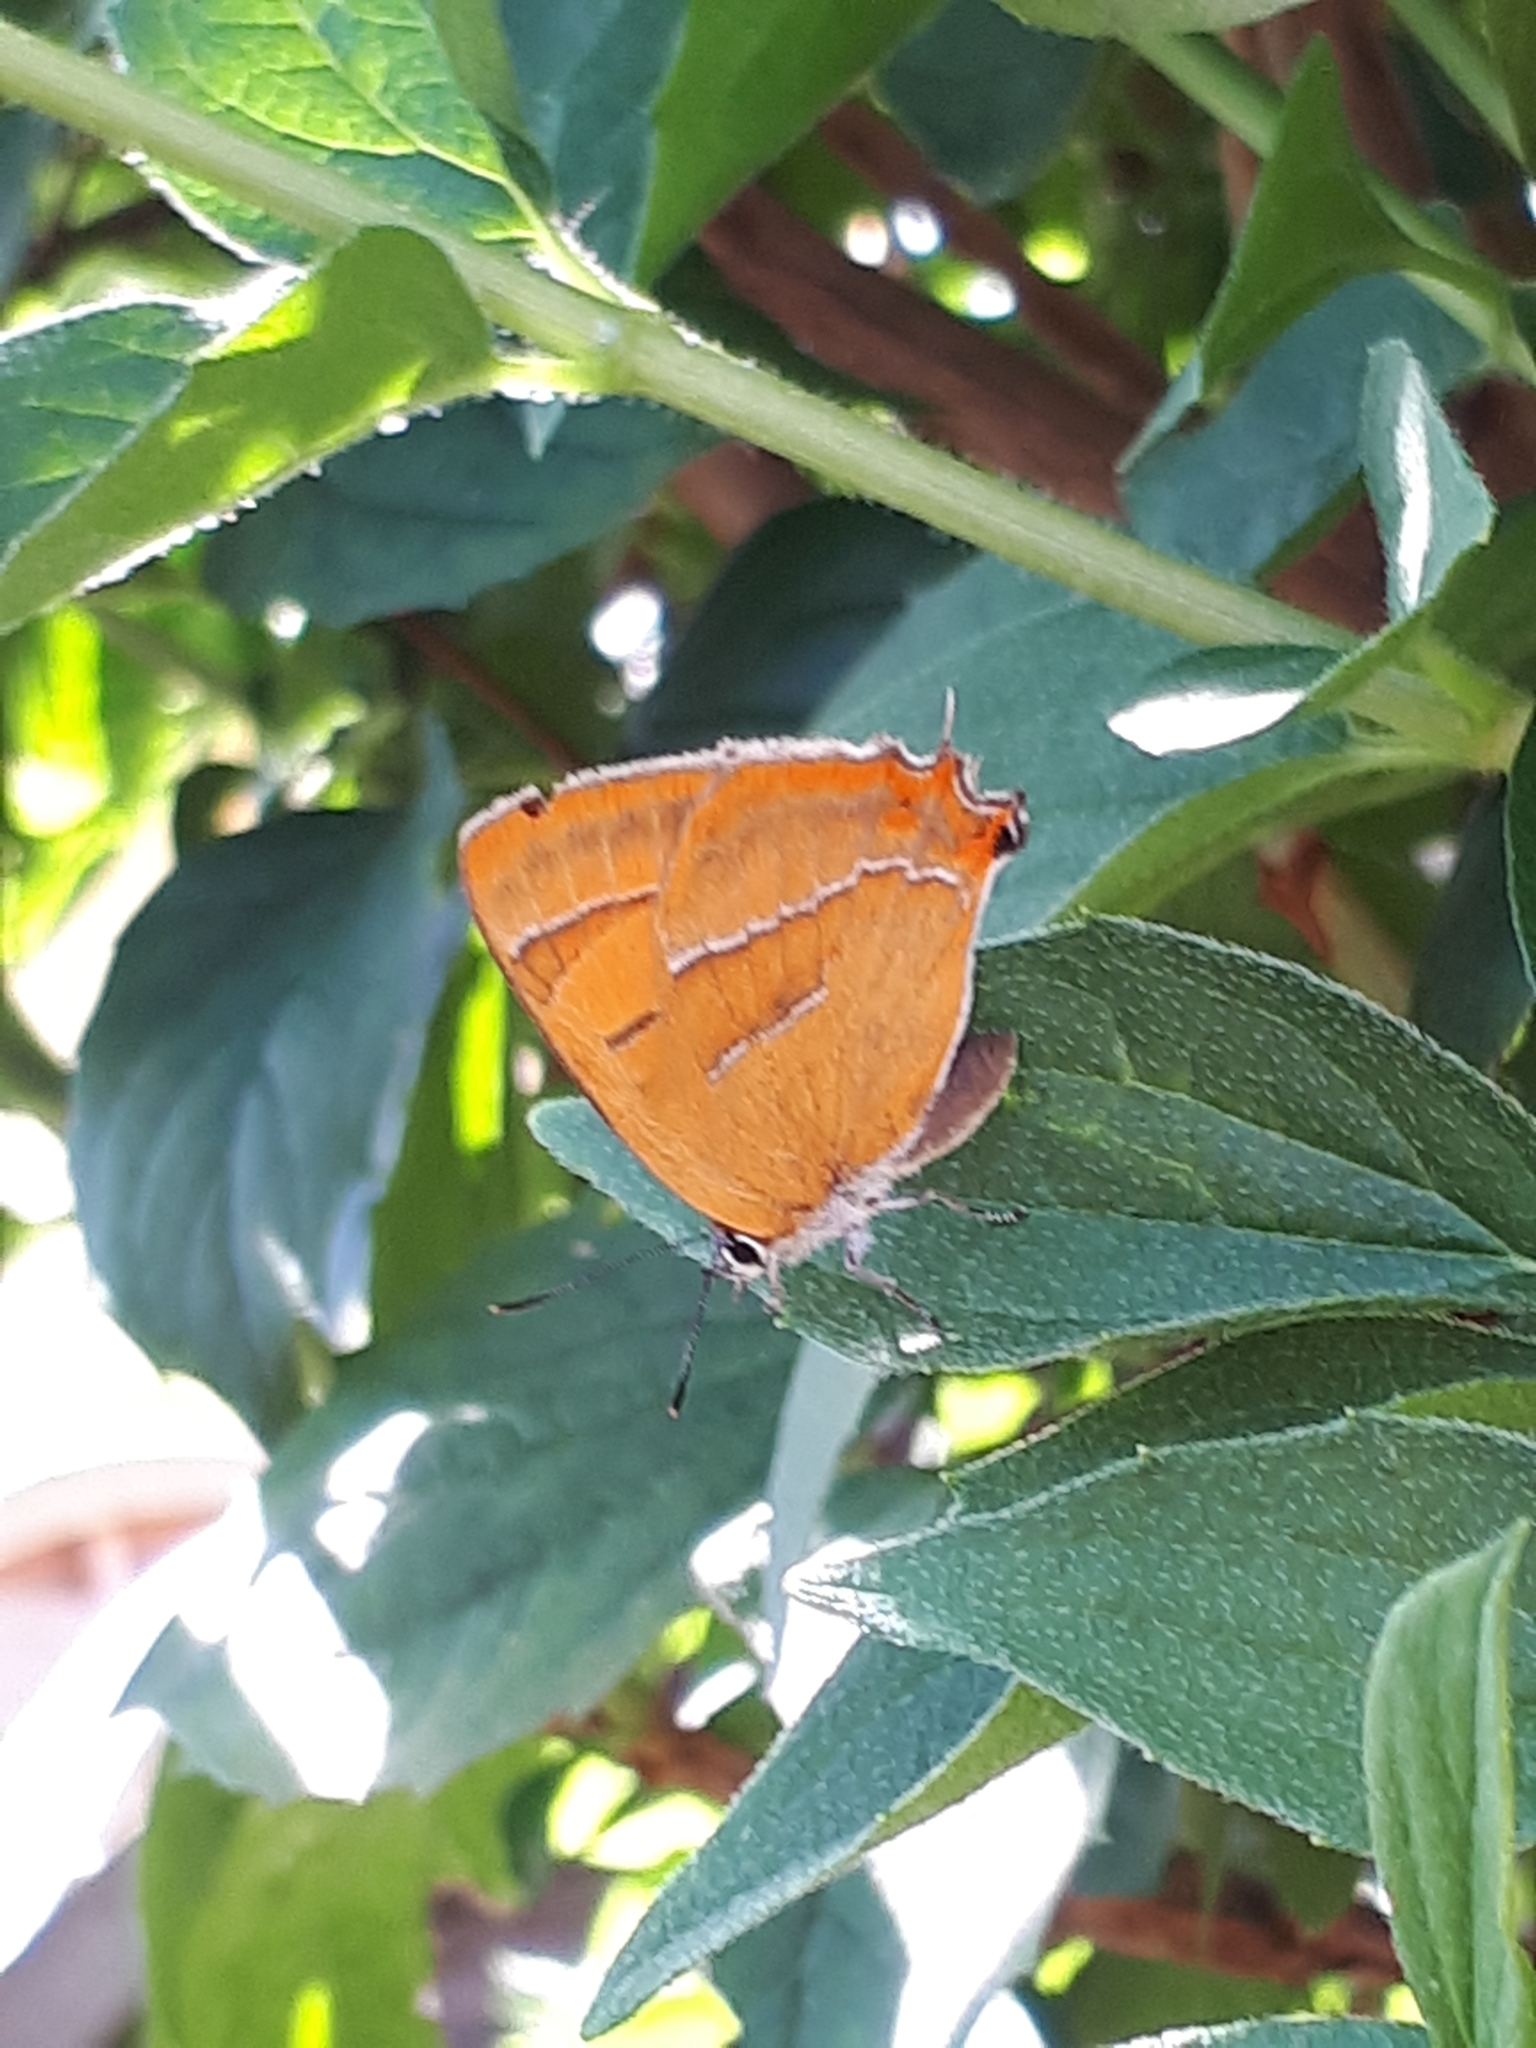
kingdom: Animalia
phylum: Arthropoda
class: Insecta
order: Lepidoptera
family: Lycaenidae
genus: Thecla
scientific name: Thecla betulae
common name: Brown hairstreak
